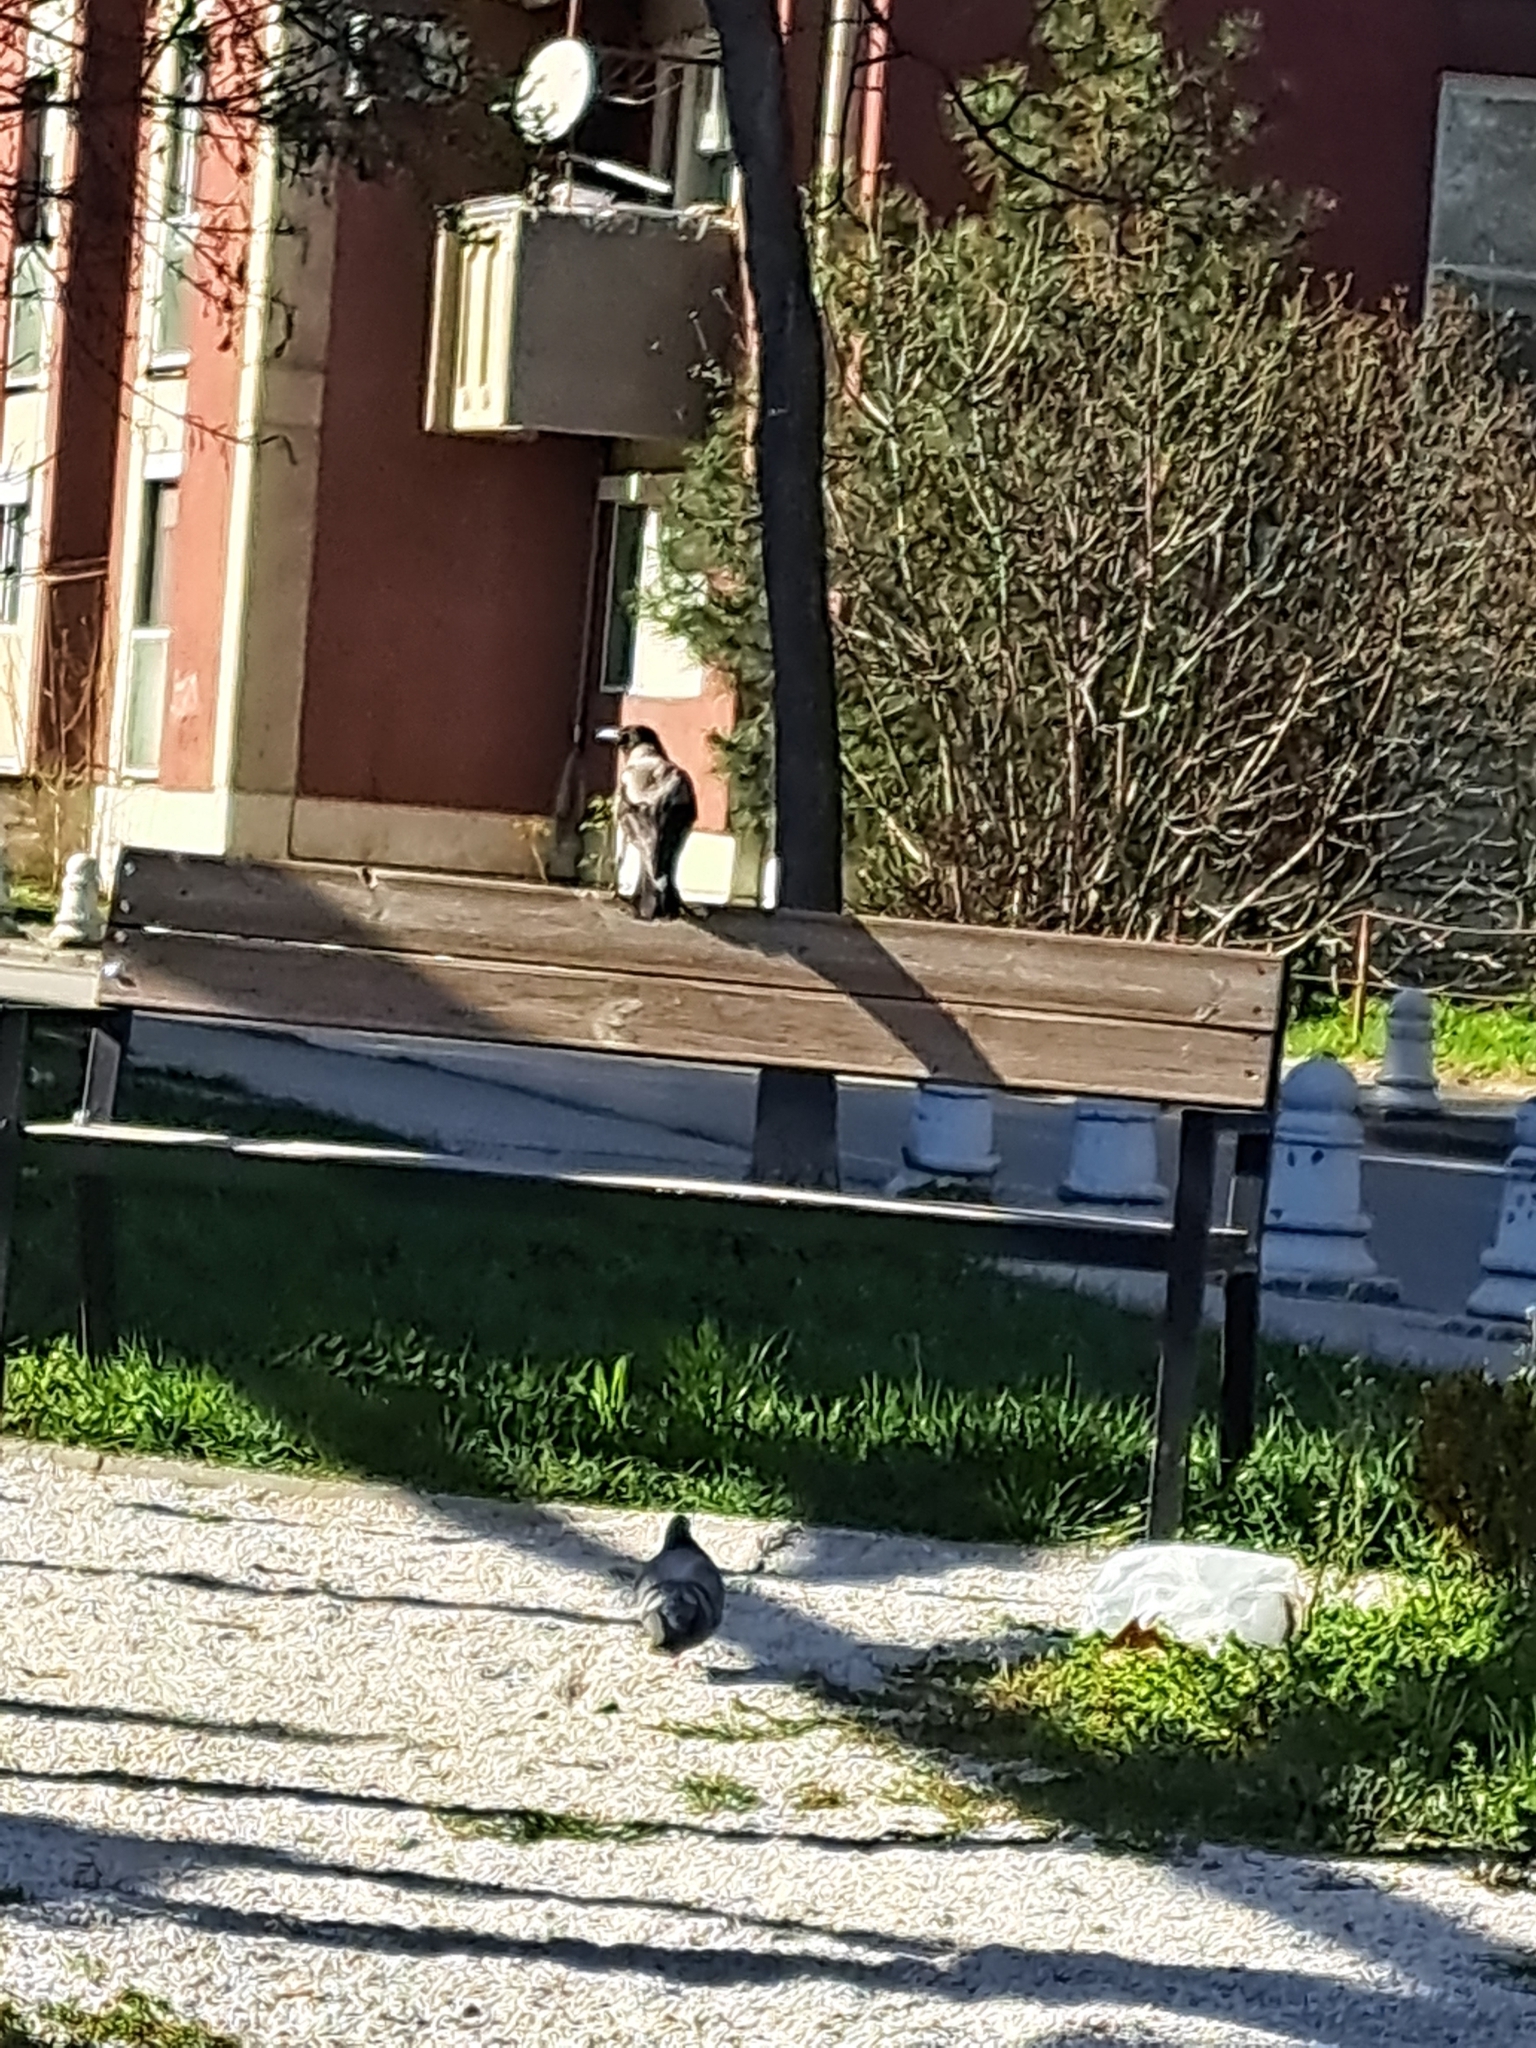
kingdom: Animalia
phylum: Chordata
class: Aves
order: Passeriformes
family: Corvidae
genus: Corvus
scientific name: Corvus cornix
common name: Hooded crow
